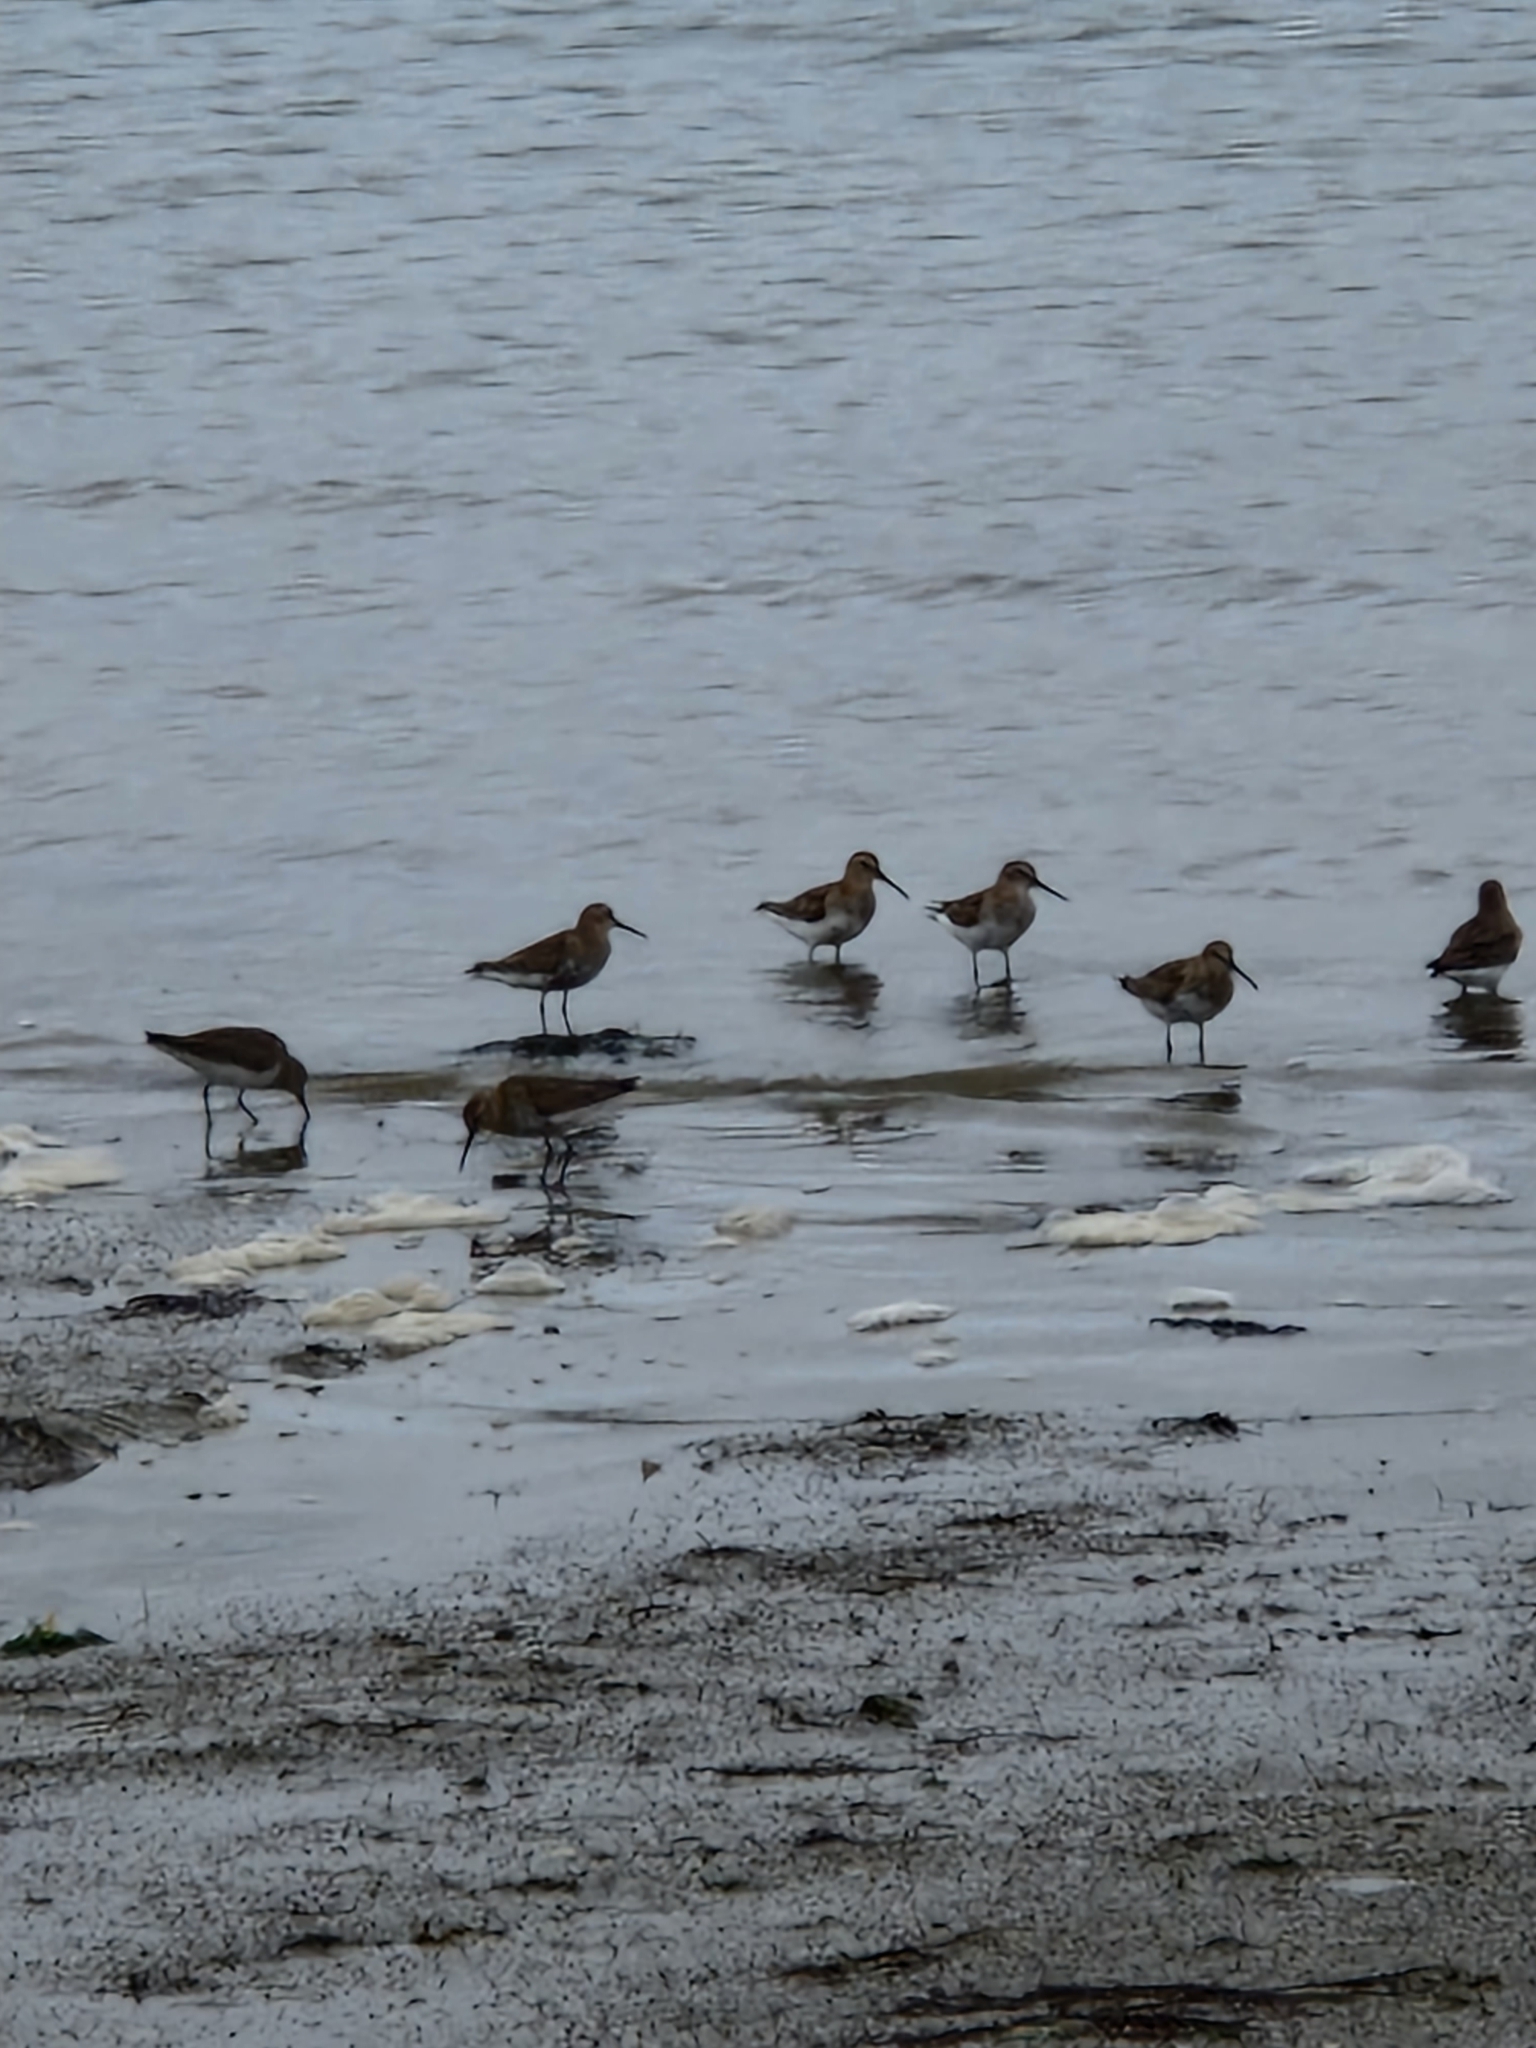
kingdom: Animalia
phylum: Chordata
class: Aves
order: Charadriiformes
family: Scolopacidae
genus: Limosa
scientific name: Limosa limosa
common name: Black-tailed godwit
